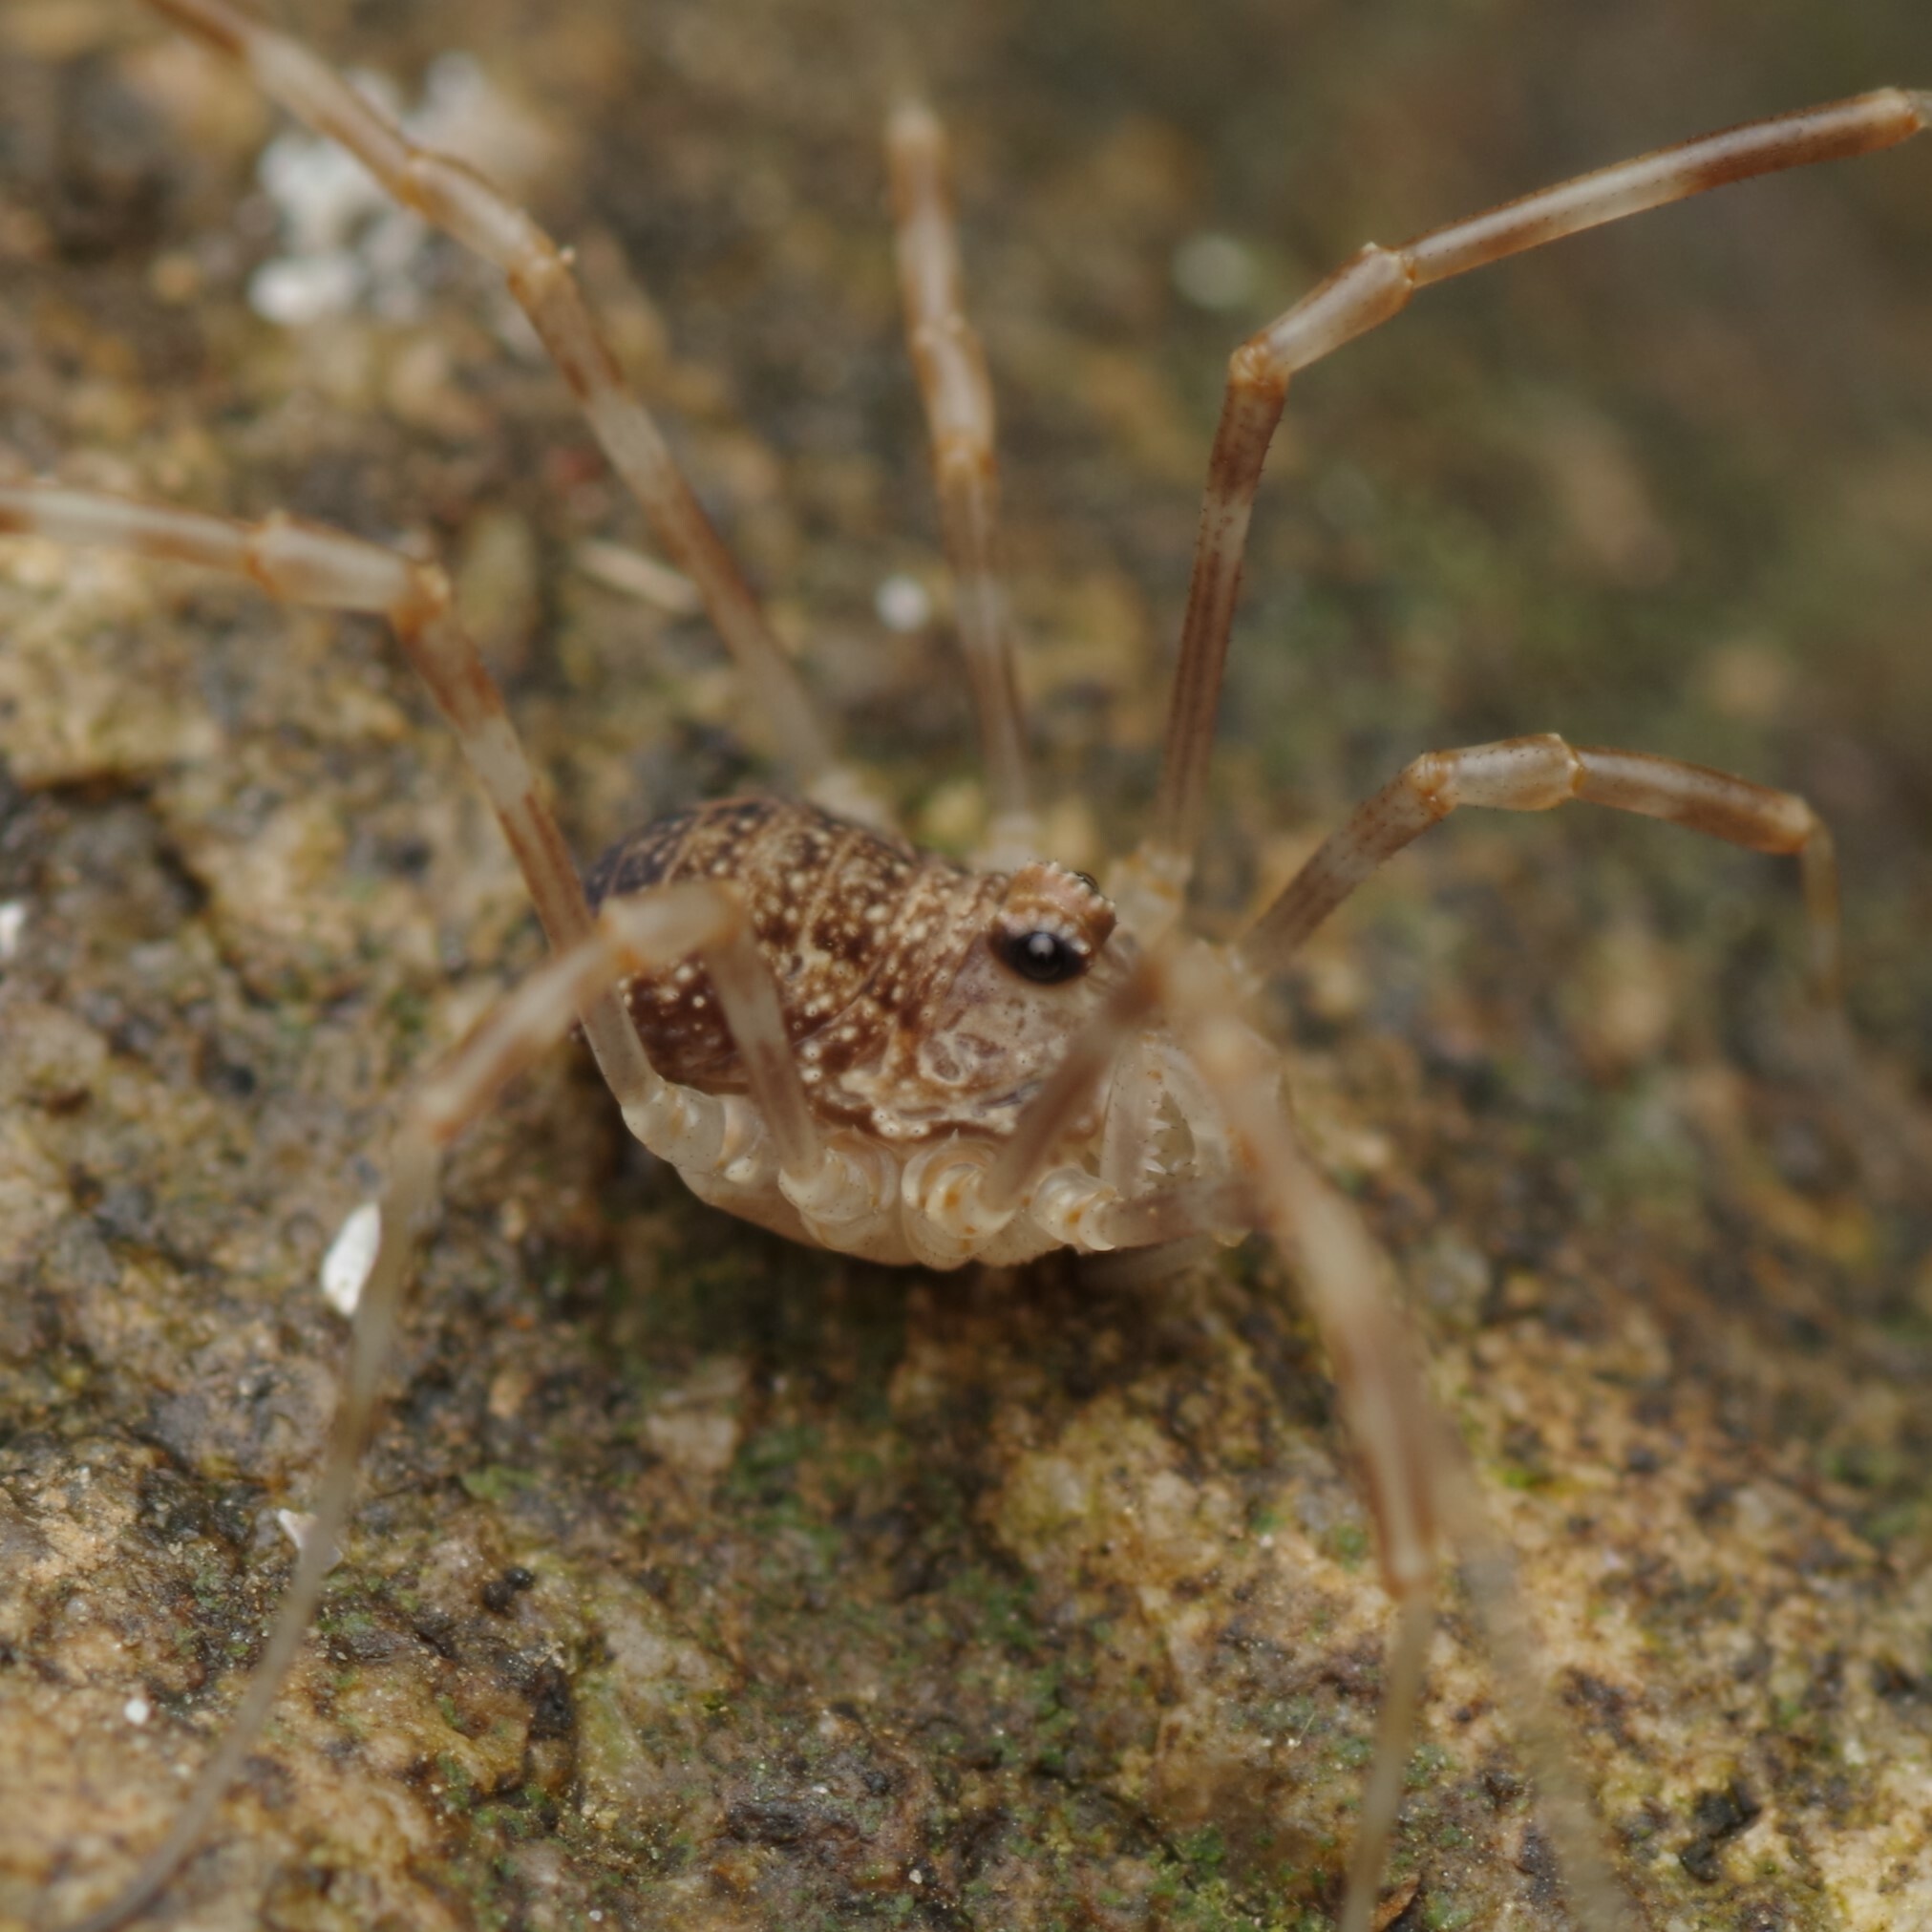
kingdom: Animalia
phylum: Arthropoda
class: Arachnida
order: Opiliones
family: Phalangiidae
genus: Rilaena
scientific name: Rilaena triangularis
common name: Spring harvestman
